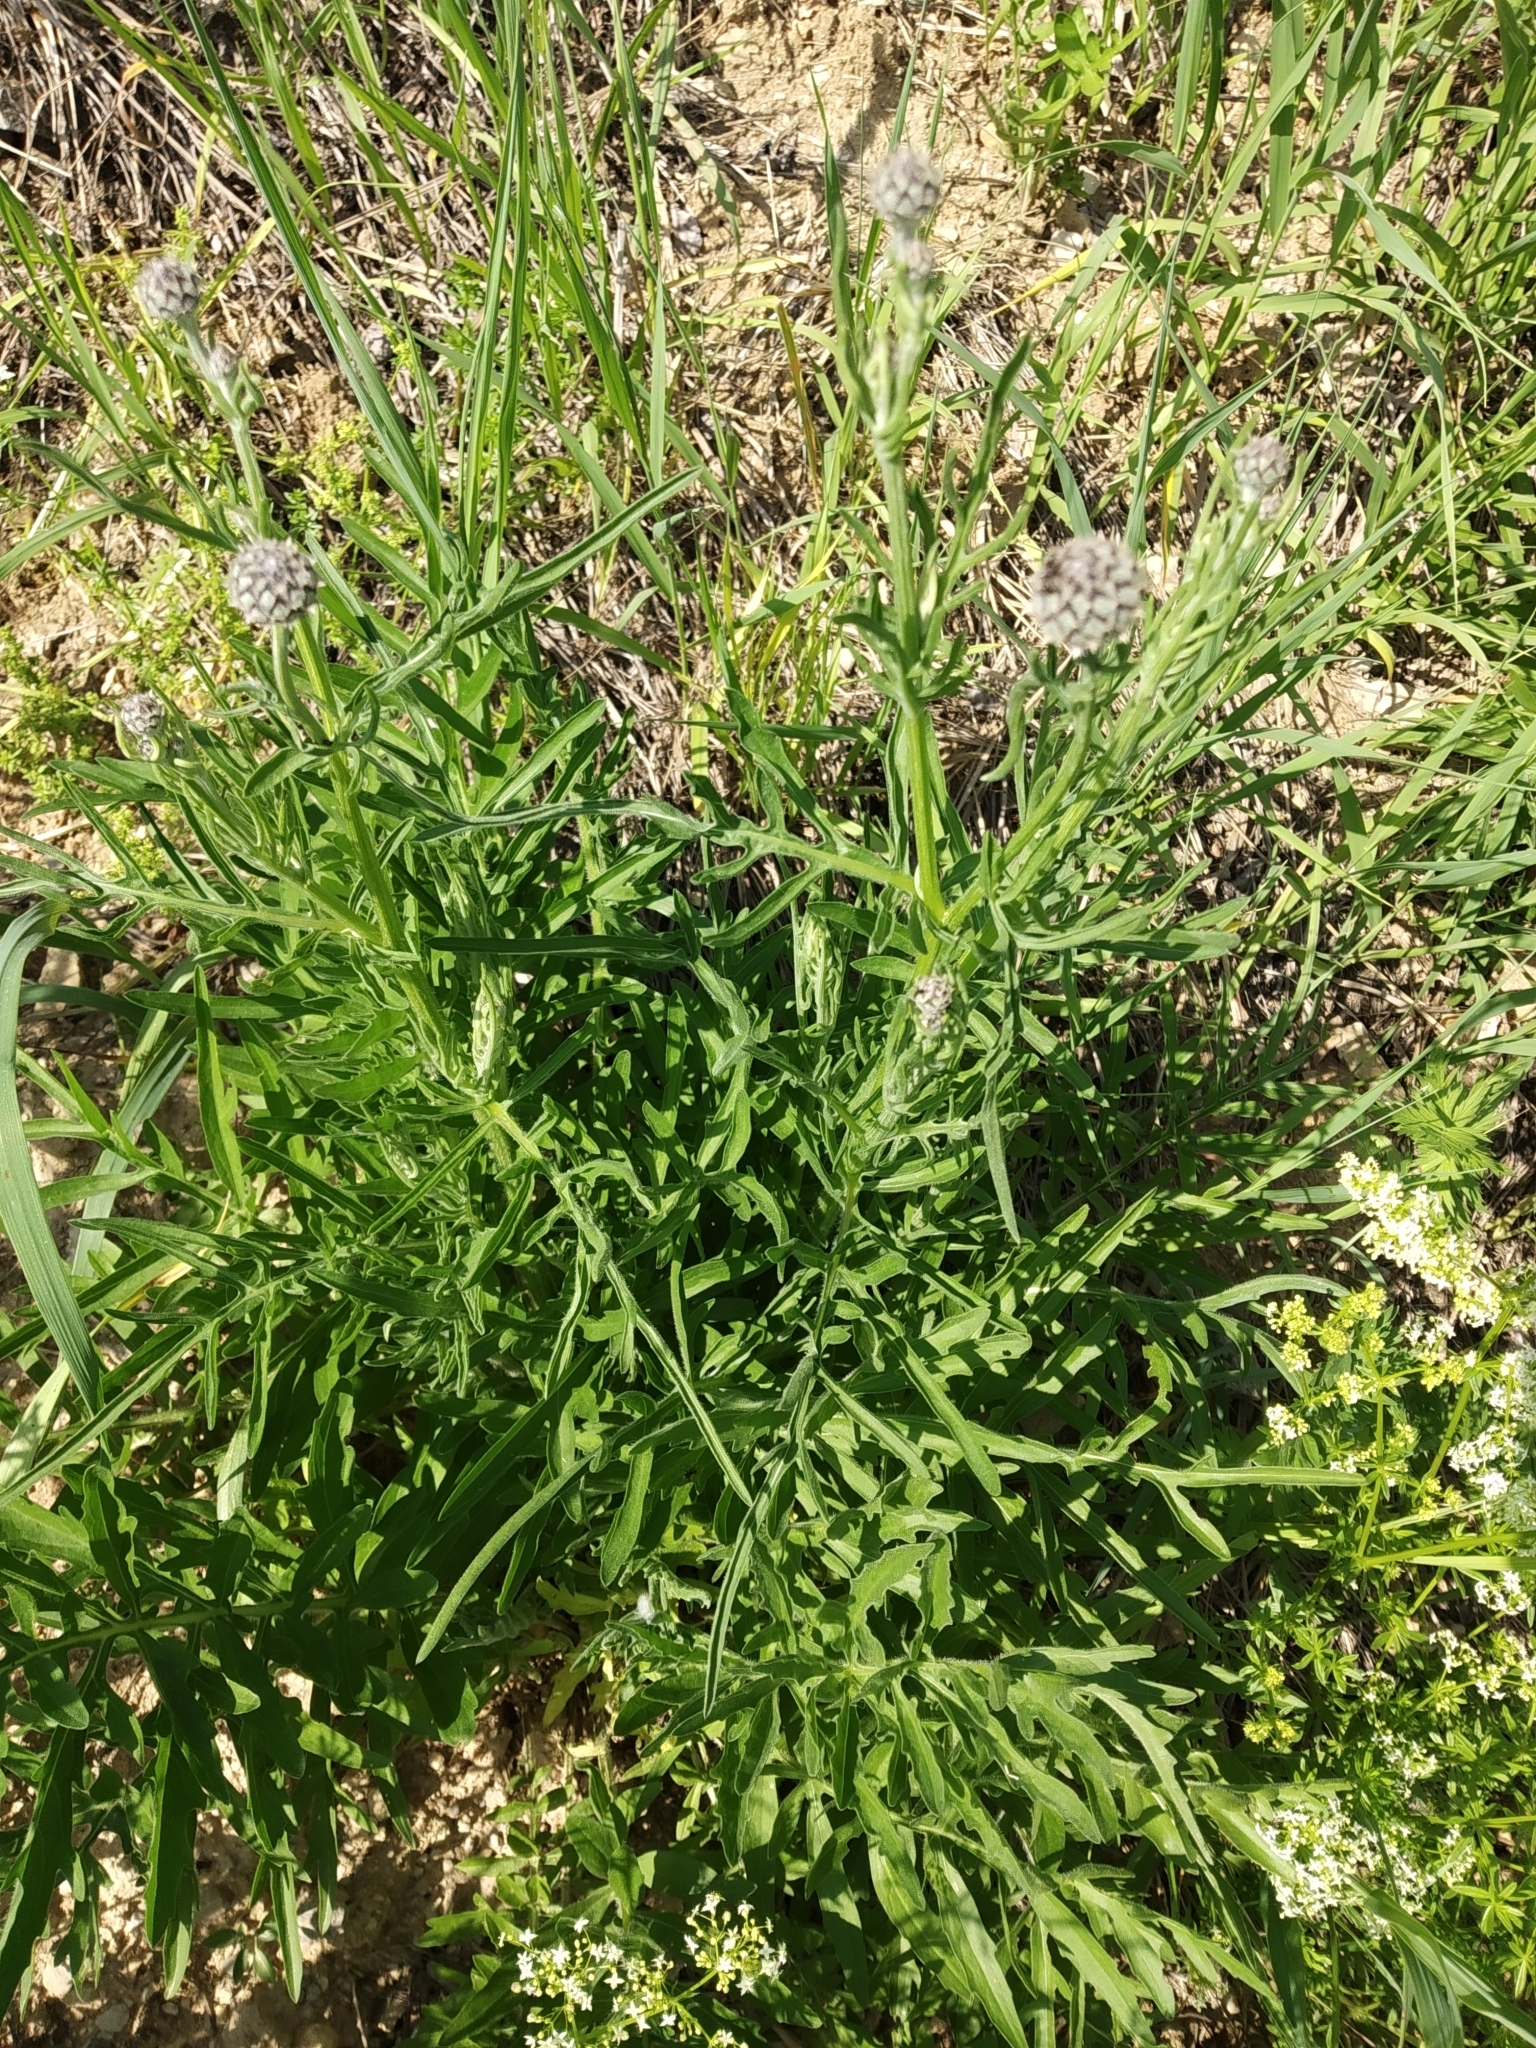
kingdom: Plantae
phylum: Tracheophyta
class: Magnoliopsida
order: Asterales
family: Asteraceae
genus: Centaurea
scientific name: Centaurea scabiosa
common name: Greater knapweed
